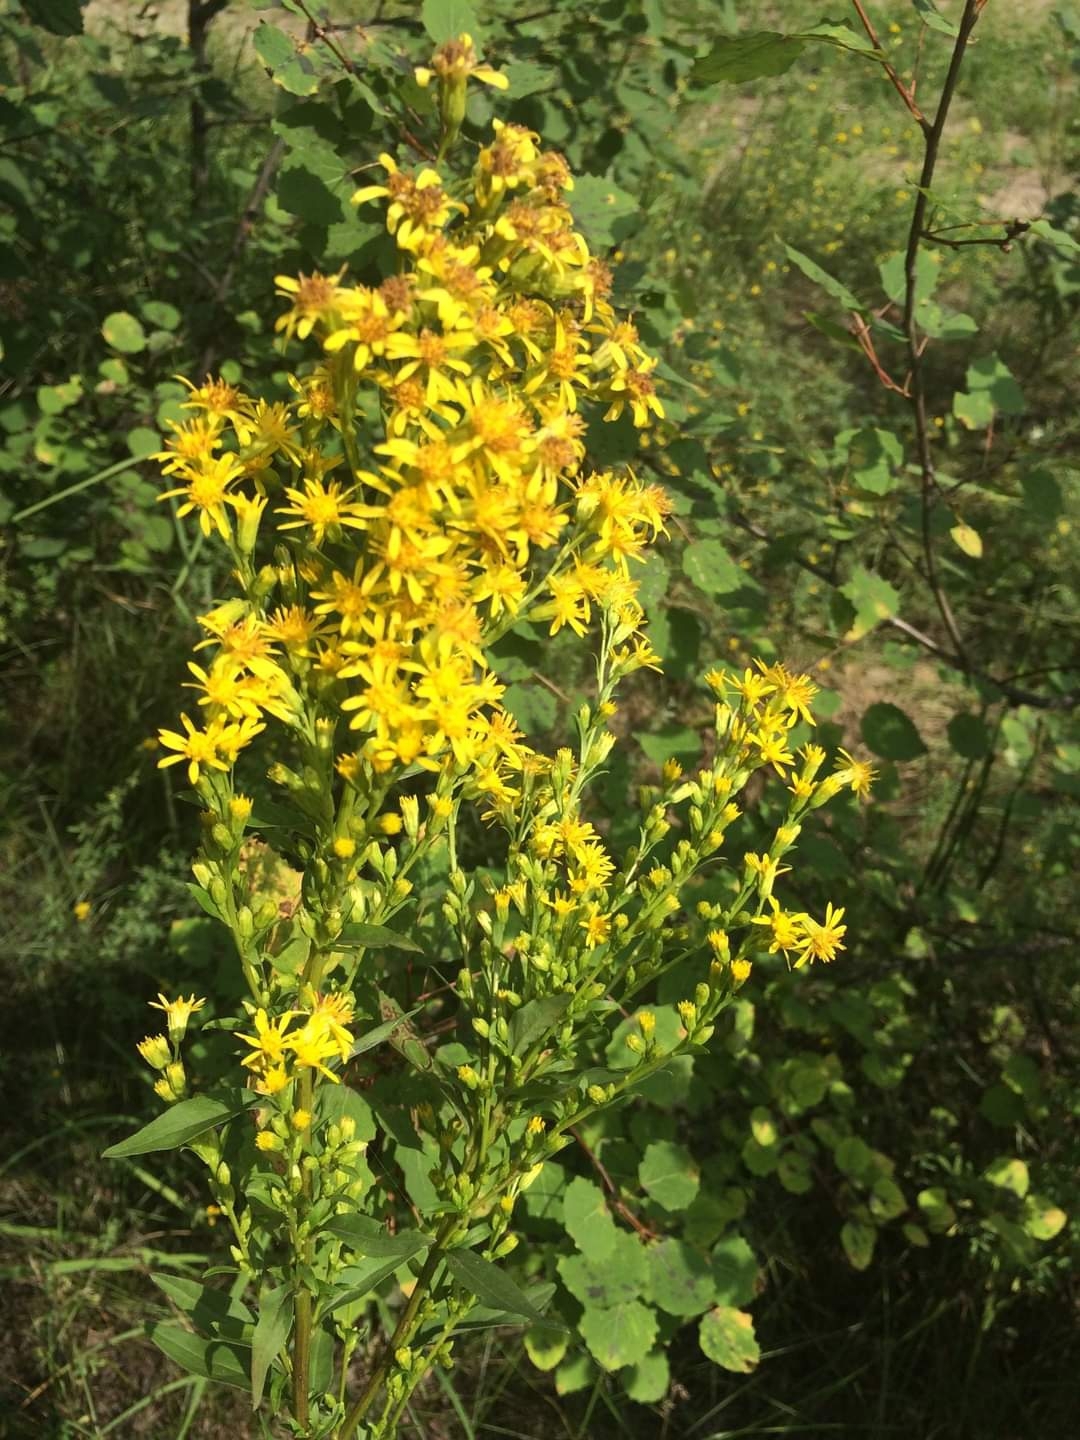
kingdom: Plantae
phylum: Tracheophyta
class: Magnoliopsida
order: Asterales
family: Asteraceae
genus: Solidago
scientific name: Solidago virgaurea
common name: Goldenrod
